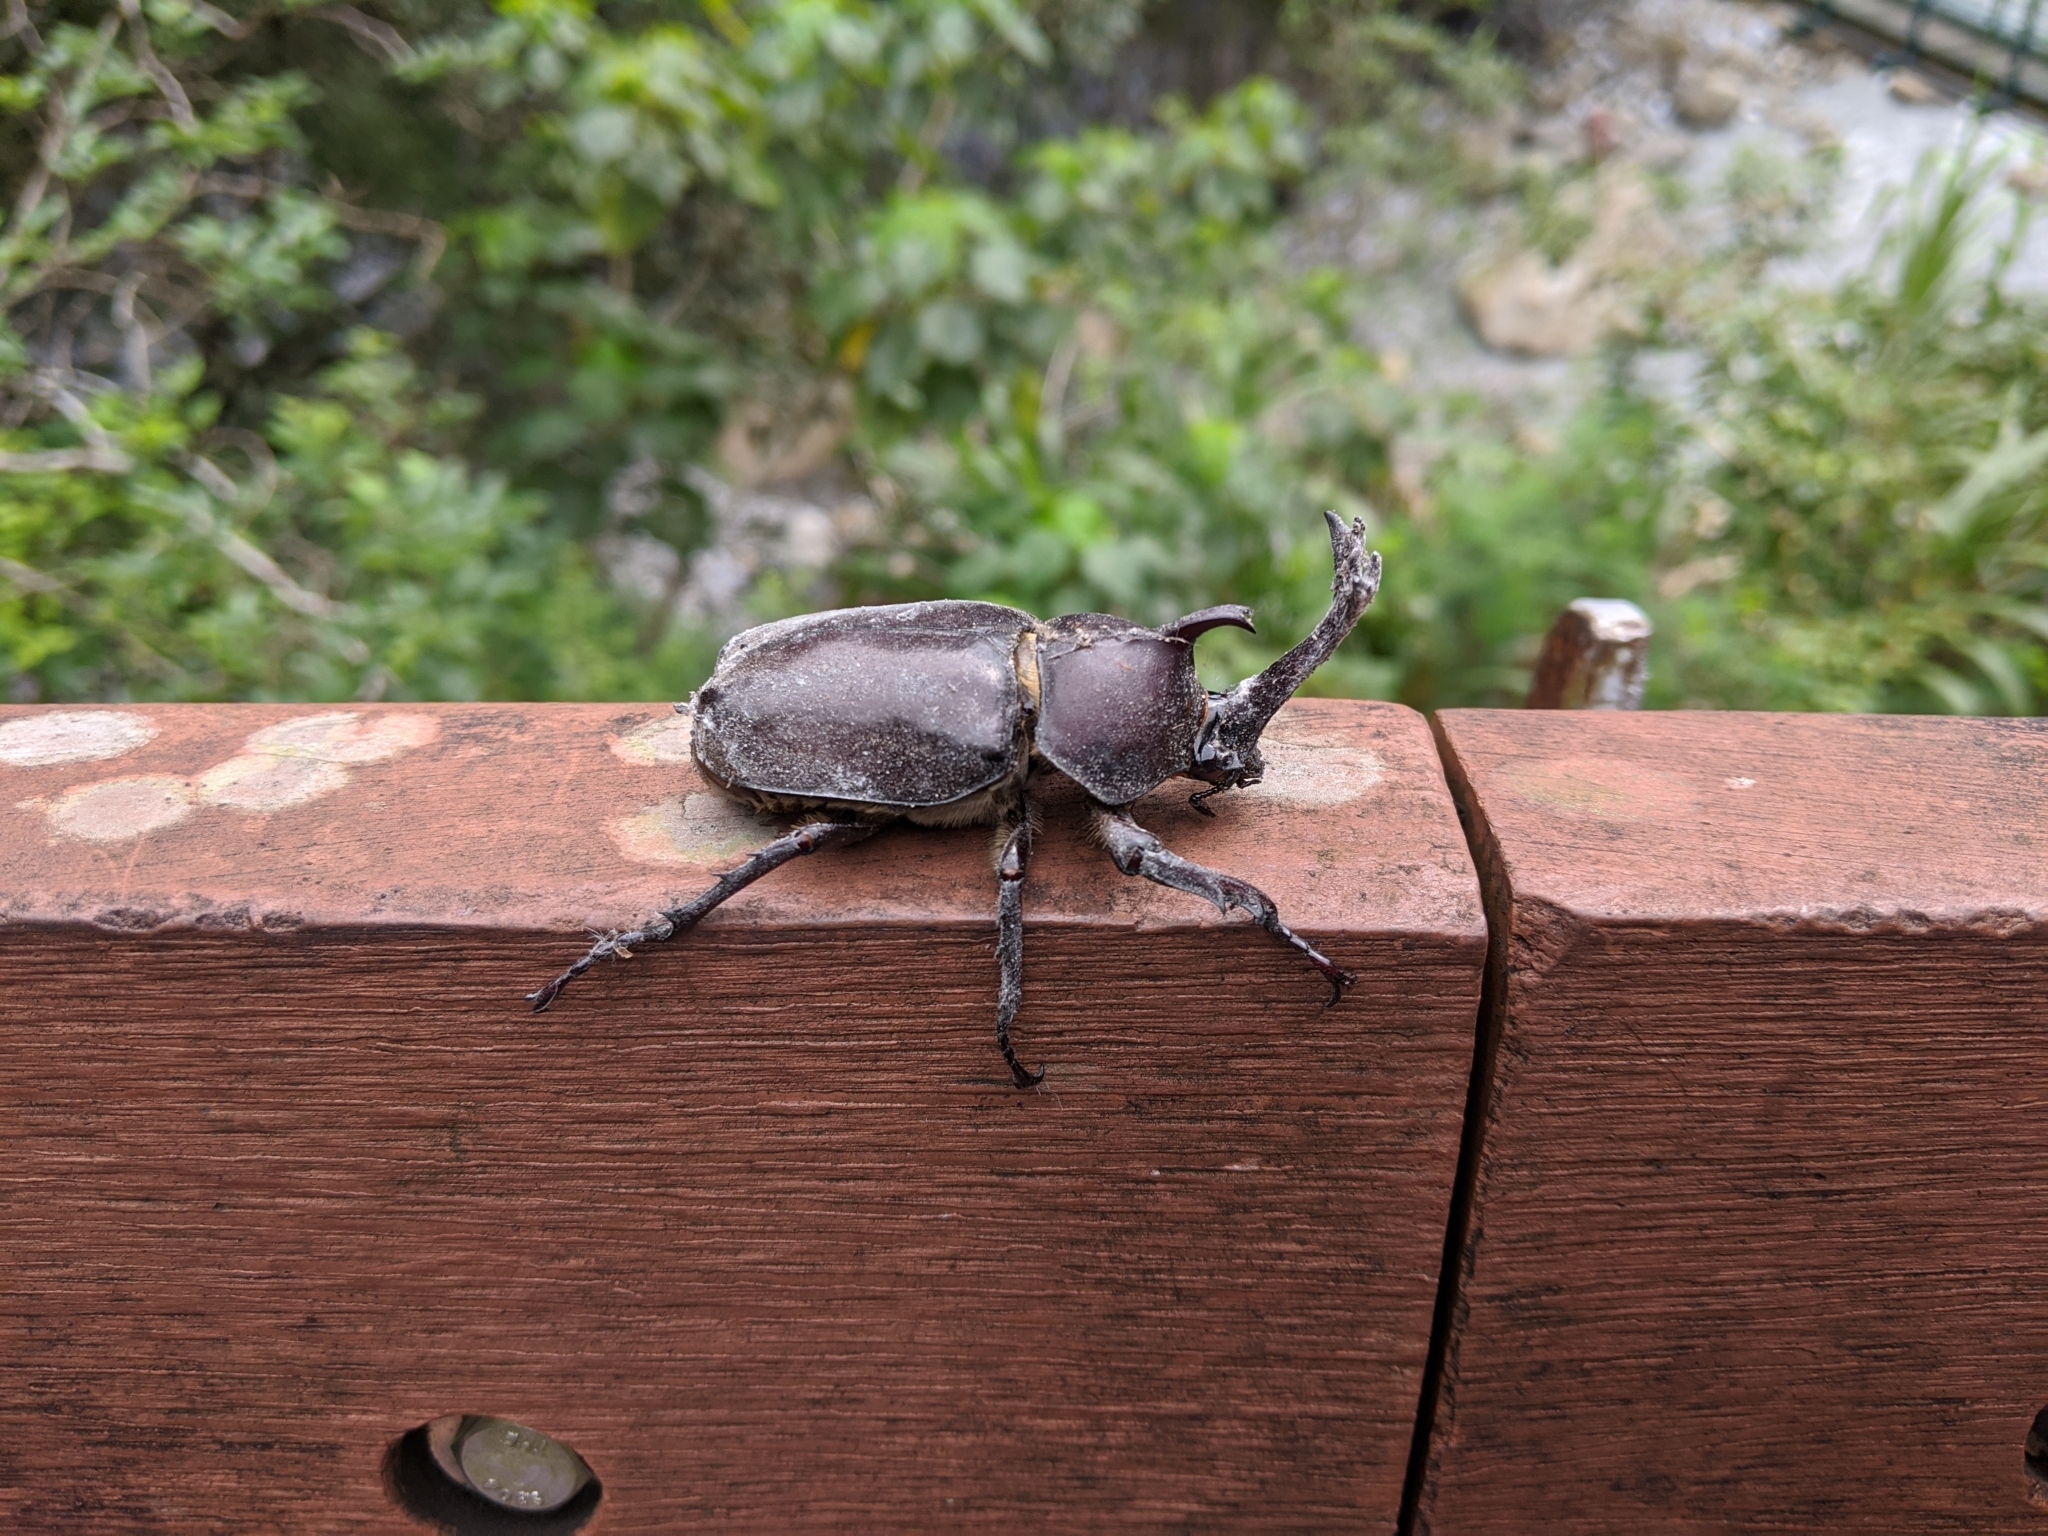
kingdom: Animalia
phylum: Arthropoda
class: Insecta
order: Coleoptera
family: Scarabaeidae
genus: Trypoxylus
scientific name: Trypoxylus dichotomus
